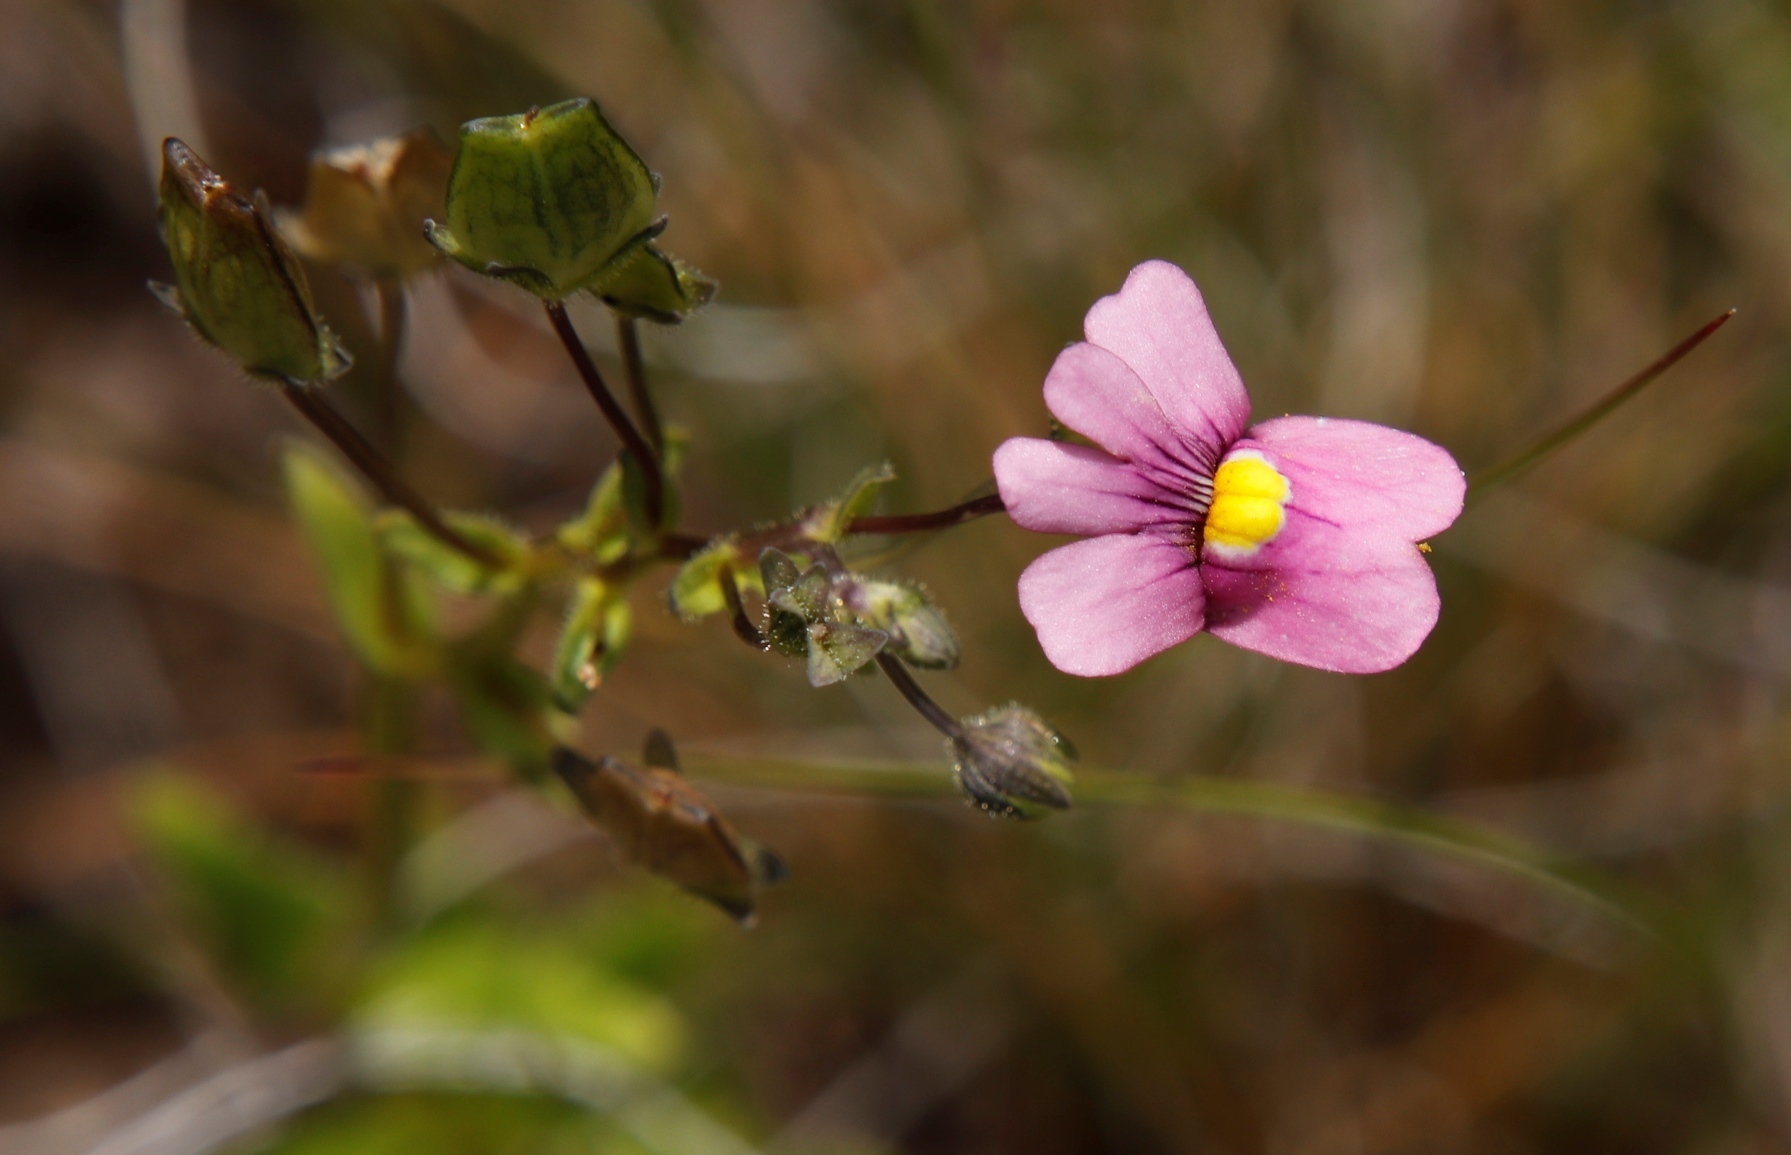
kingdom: Plantae
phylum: Tracheophyta
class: Magnoliopsida
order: Lamiales
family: Scrophulariaceae
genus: Nemesia
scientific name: Nemesia fruticans
